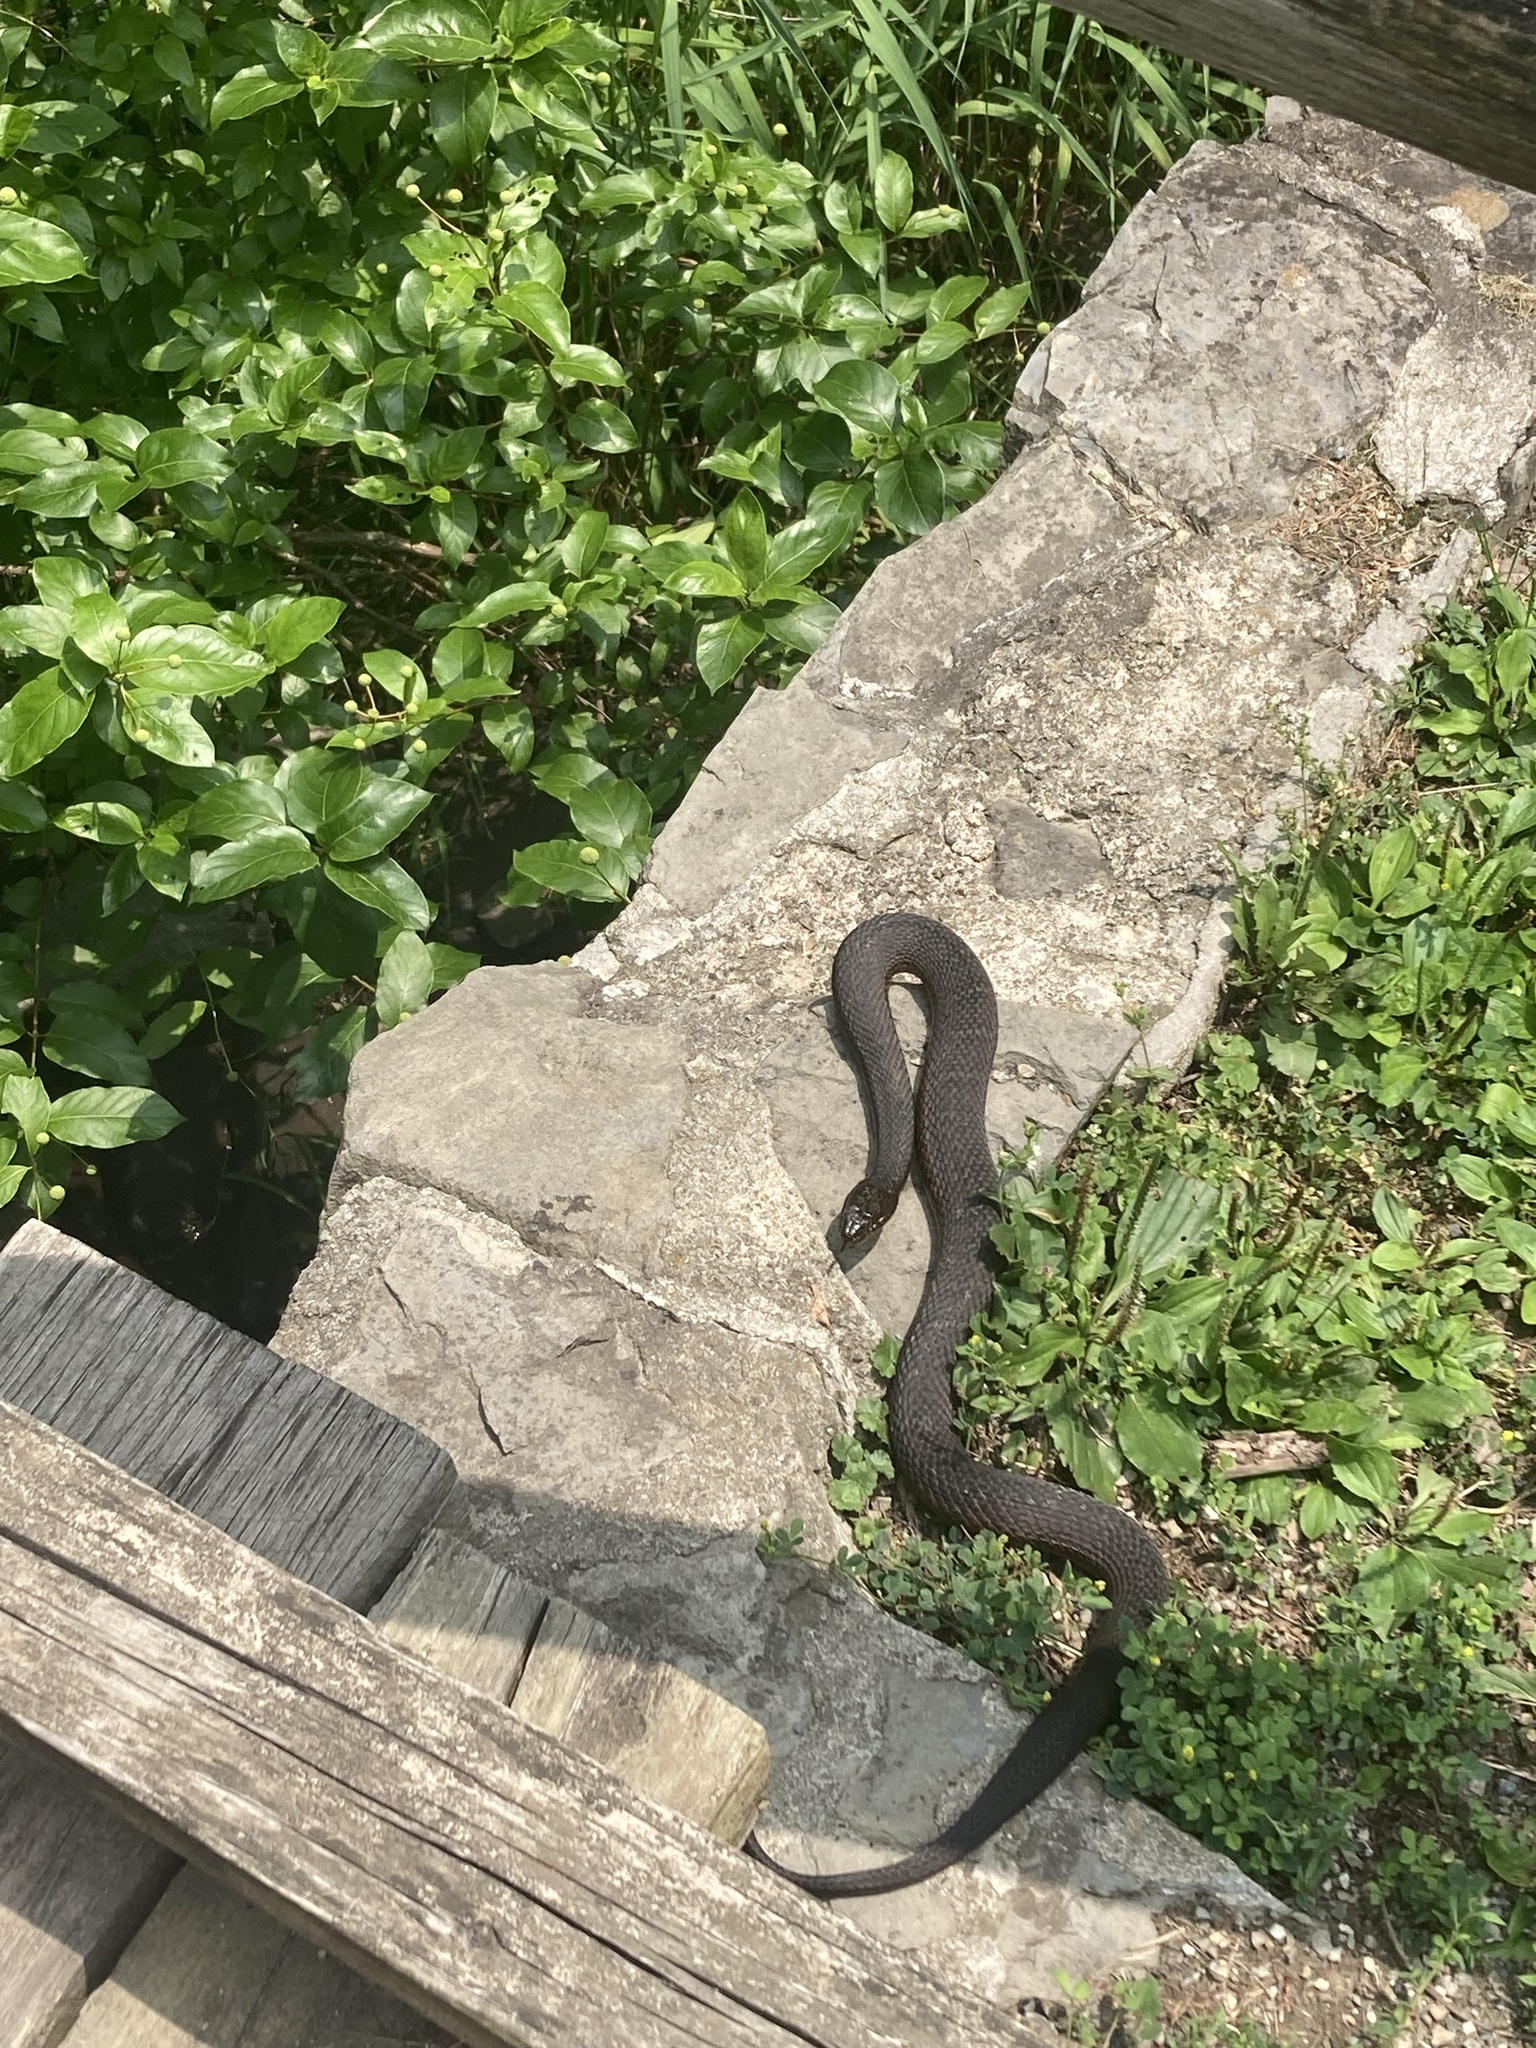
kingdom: Animalia
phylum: Chordata
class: Squamata
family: Colubridae
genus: Nerodia
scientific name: Nerodia sipedon
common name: Northern water snake
